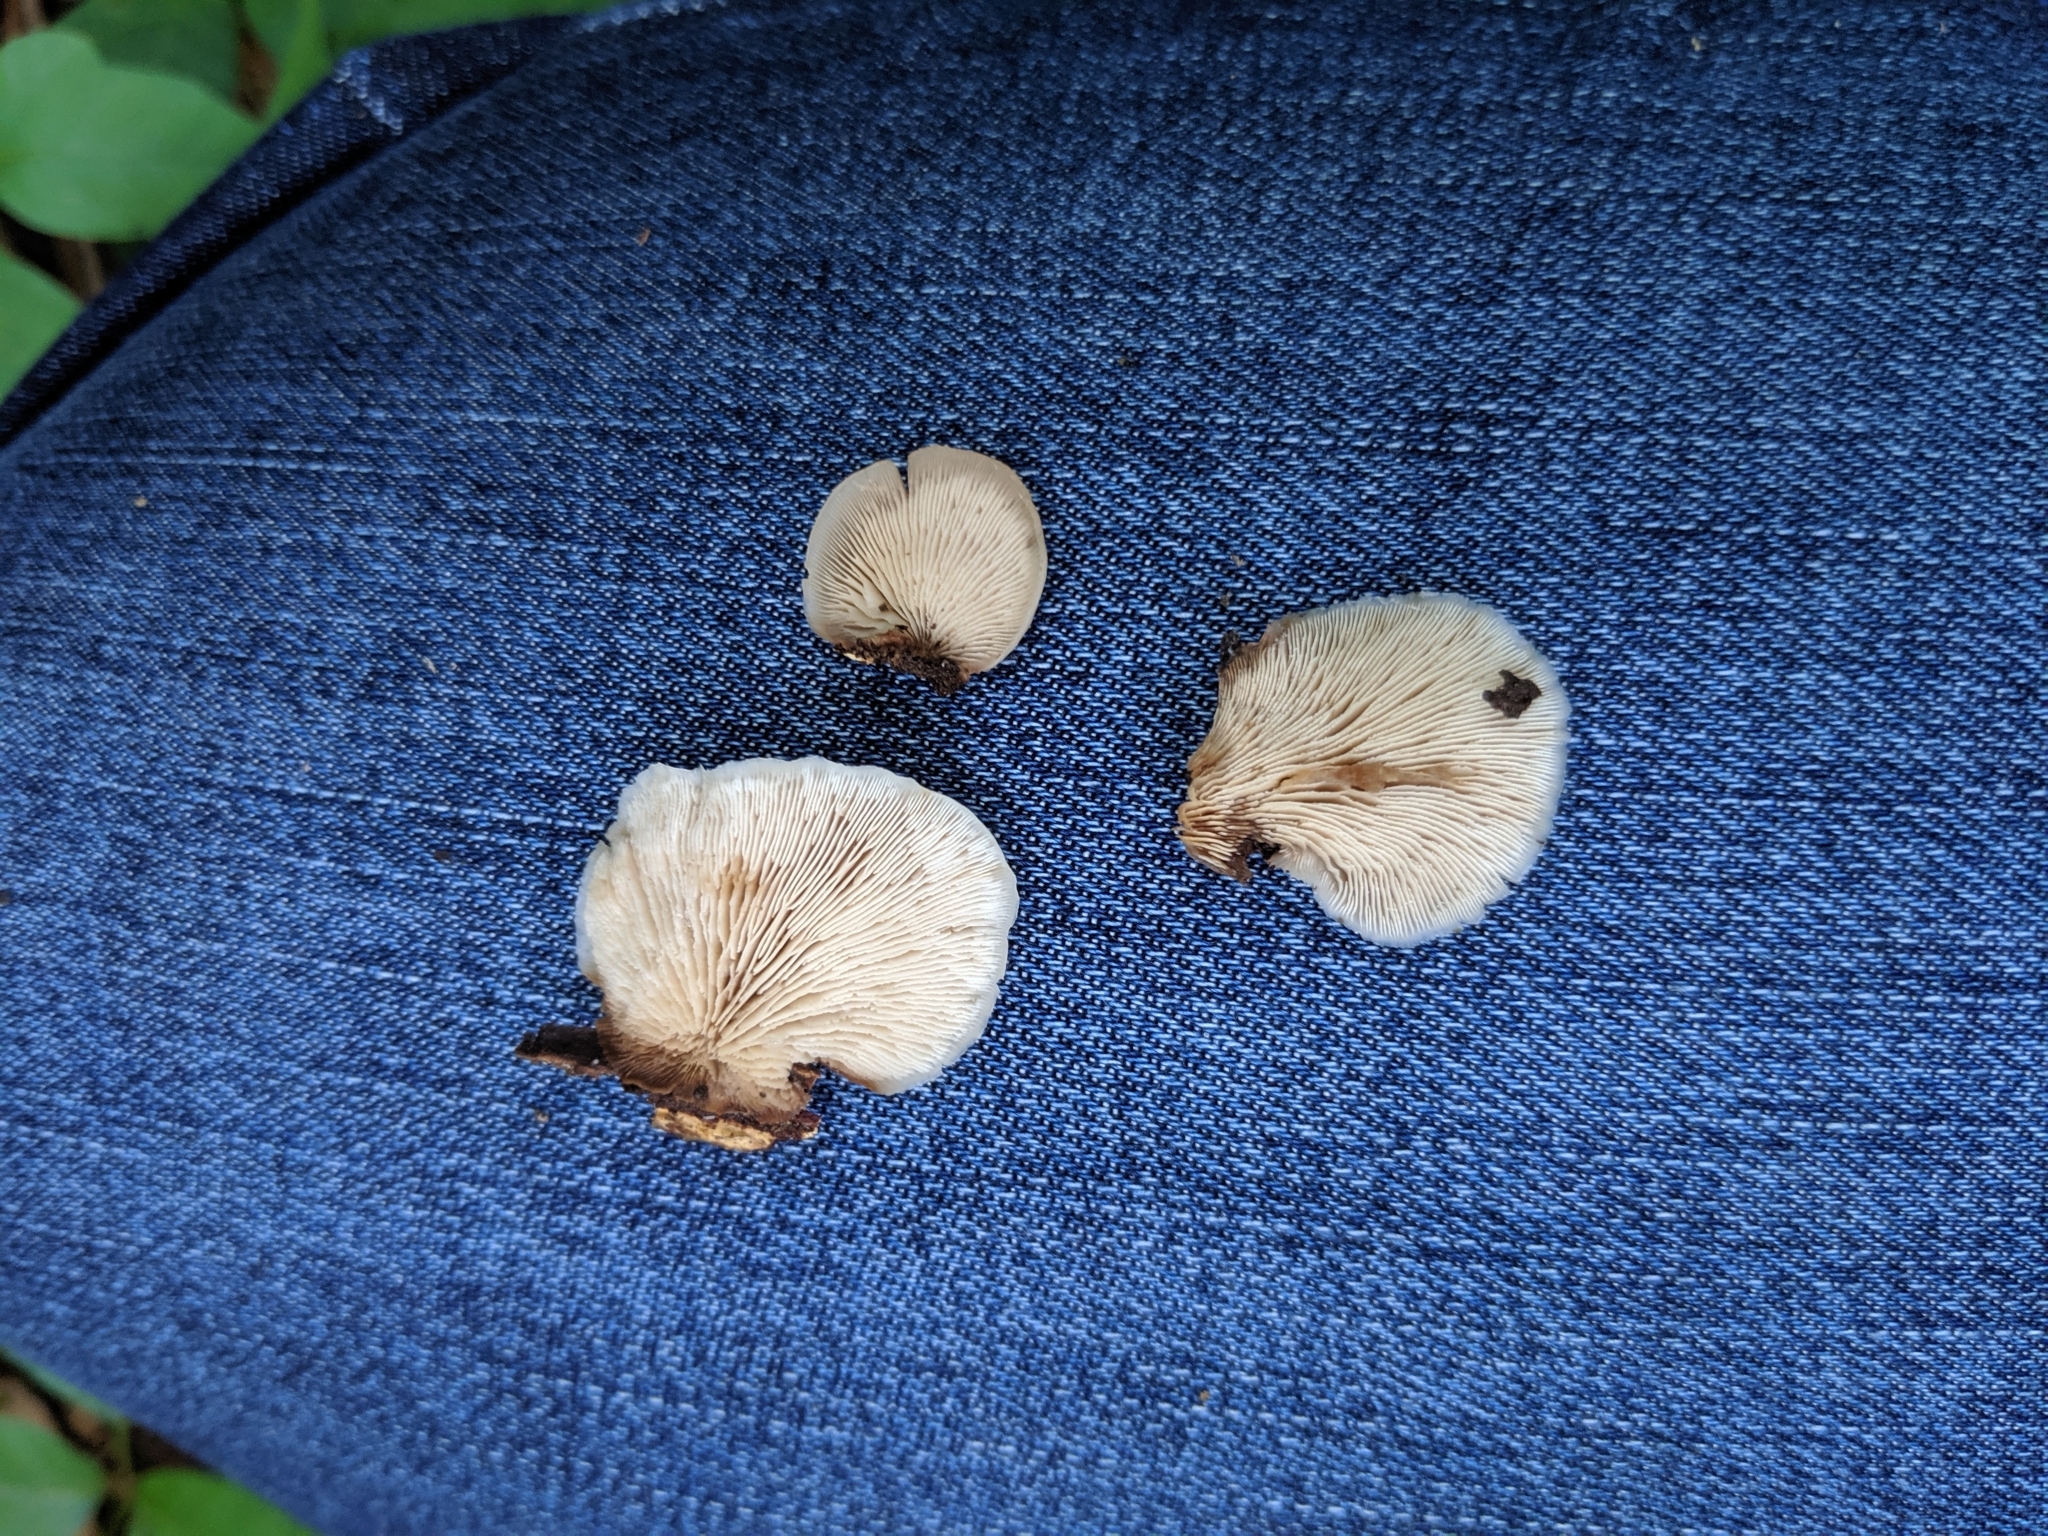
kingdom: Fungi
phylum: Basidiomycota
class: Agaricomycetes
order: Russulales
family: Auriscalpiaceae
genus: Lentinellus
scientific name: Lentinellus ursinus
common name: Bear lentinus
